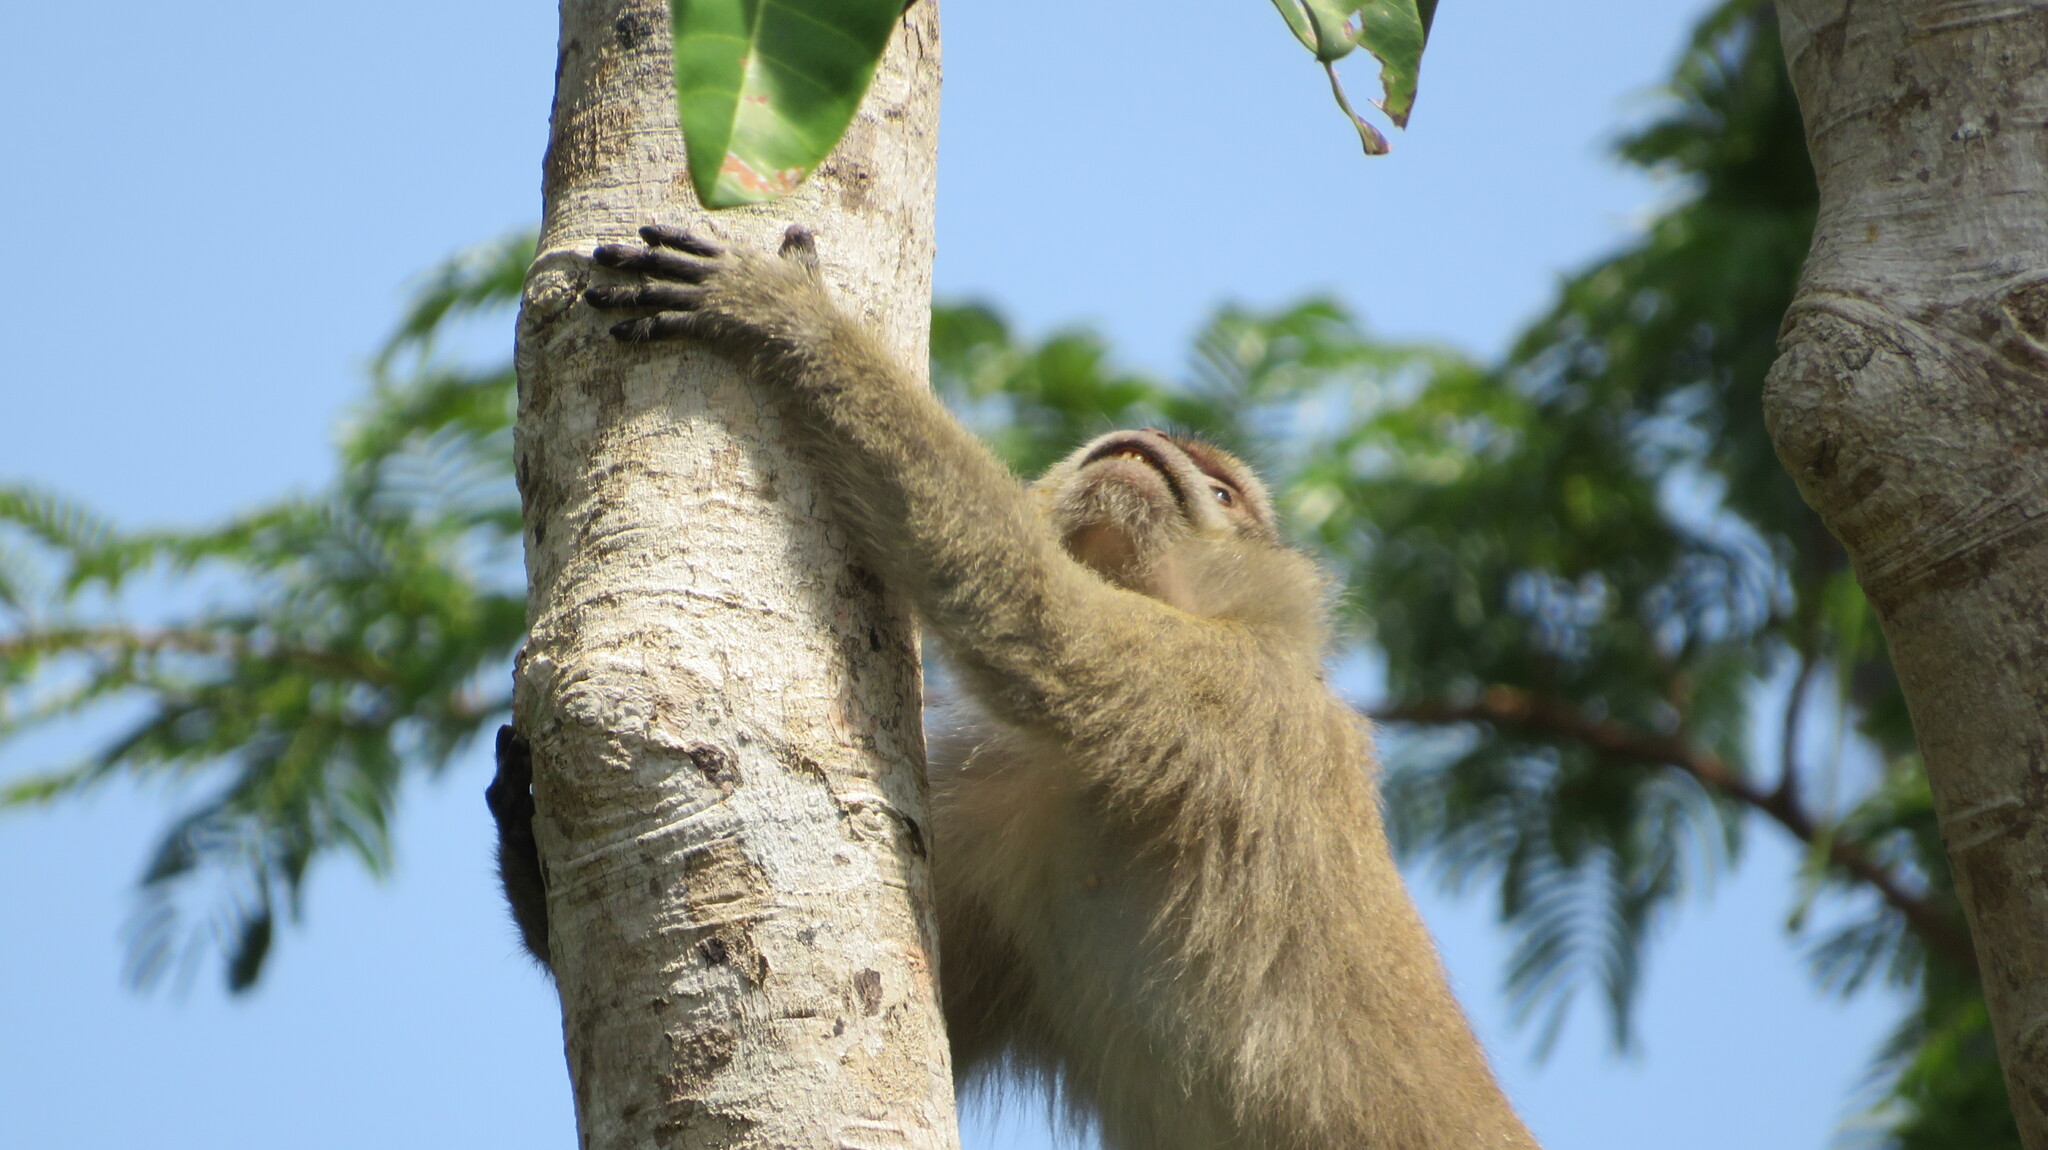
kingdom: Animalia
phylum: Chordata
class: Mammalia
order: Primates
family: Cercopithecidae
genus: Macaca
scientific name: Macaca fascicularis
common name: Crab-eating macaque
